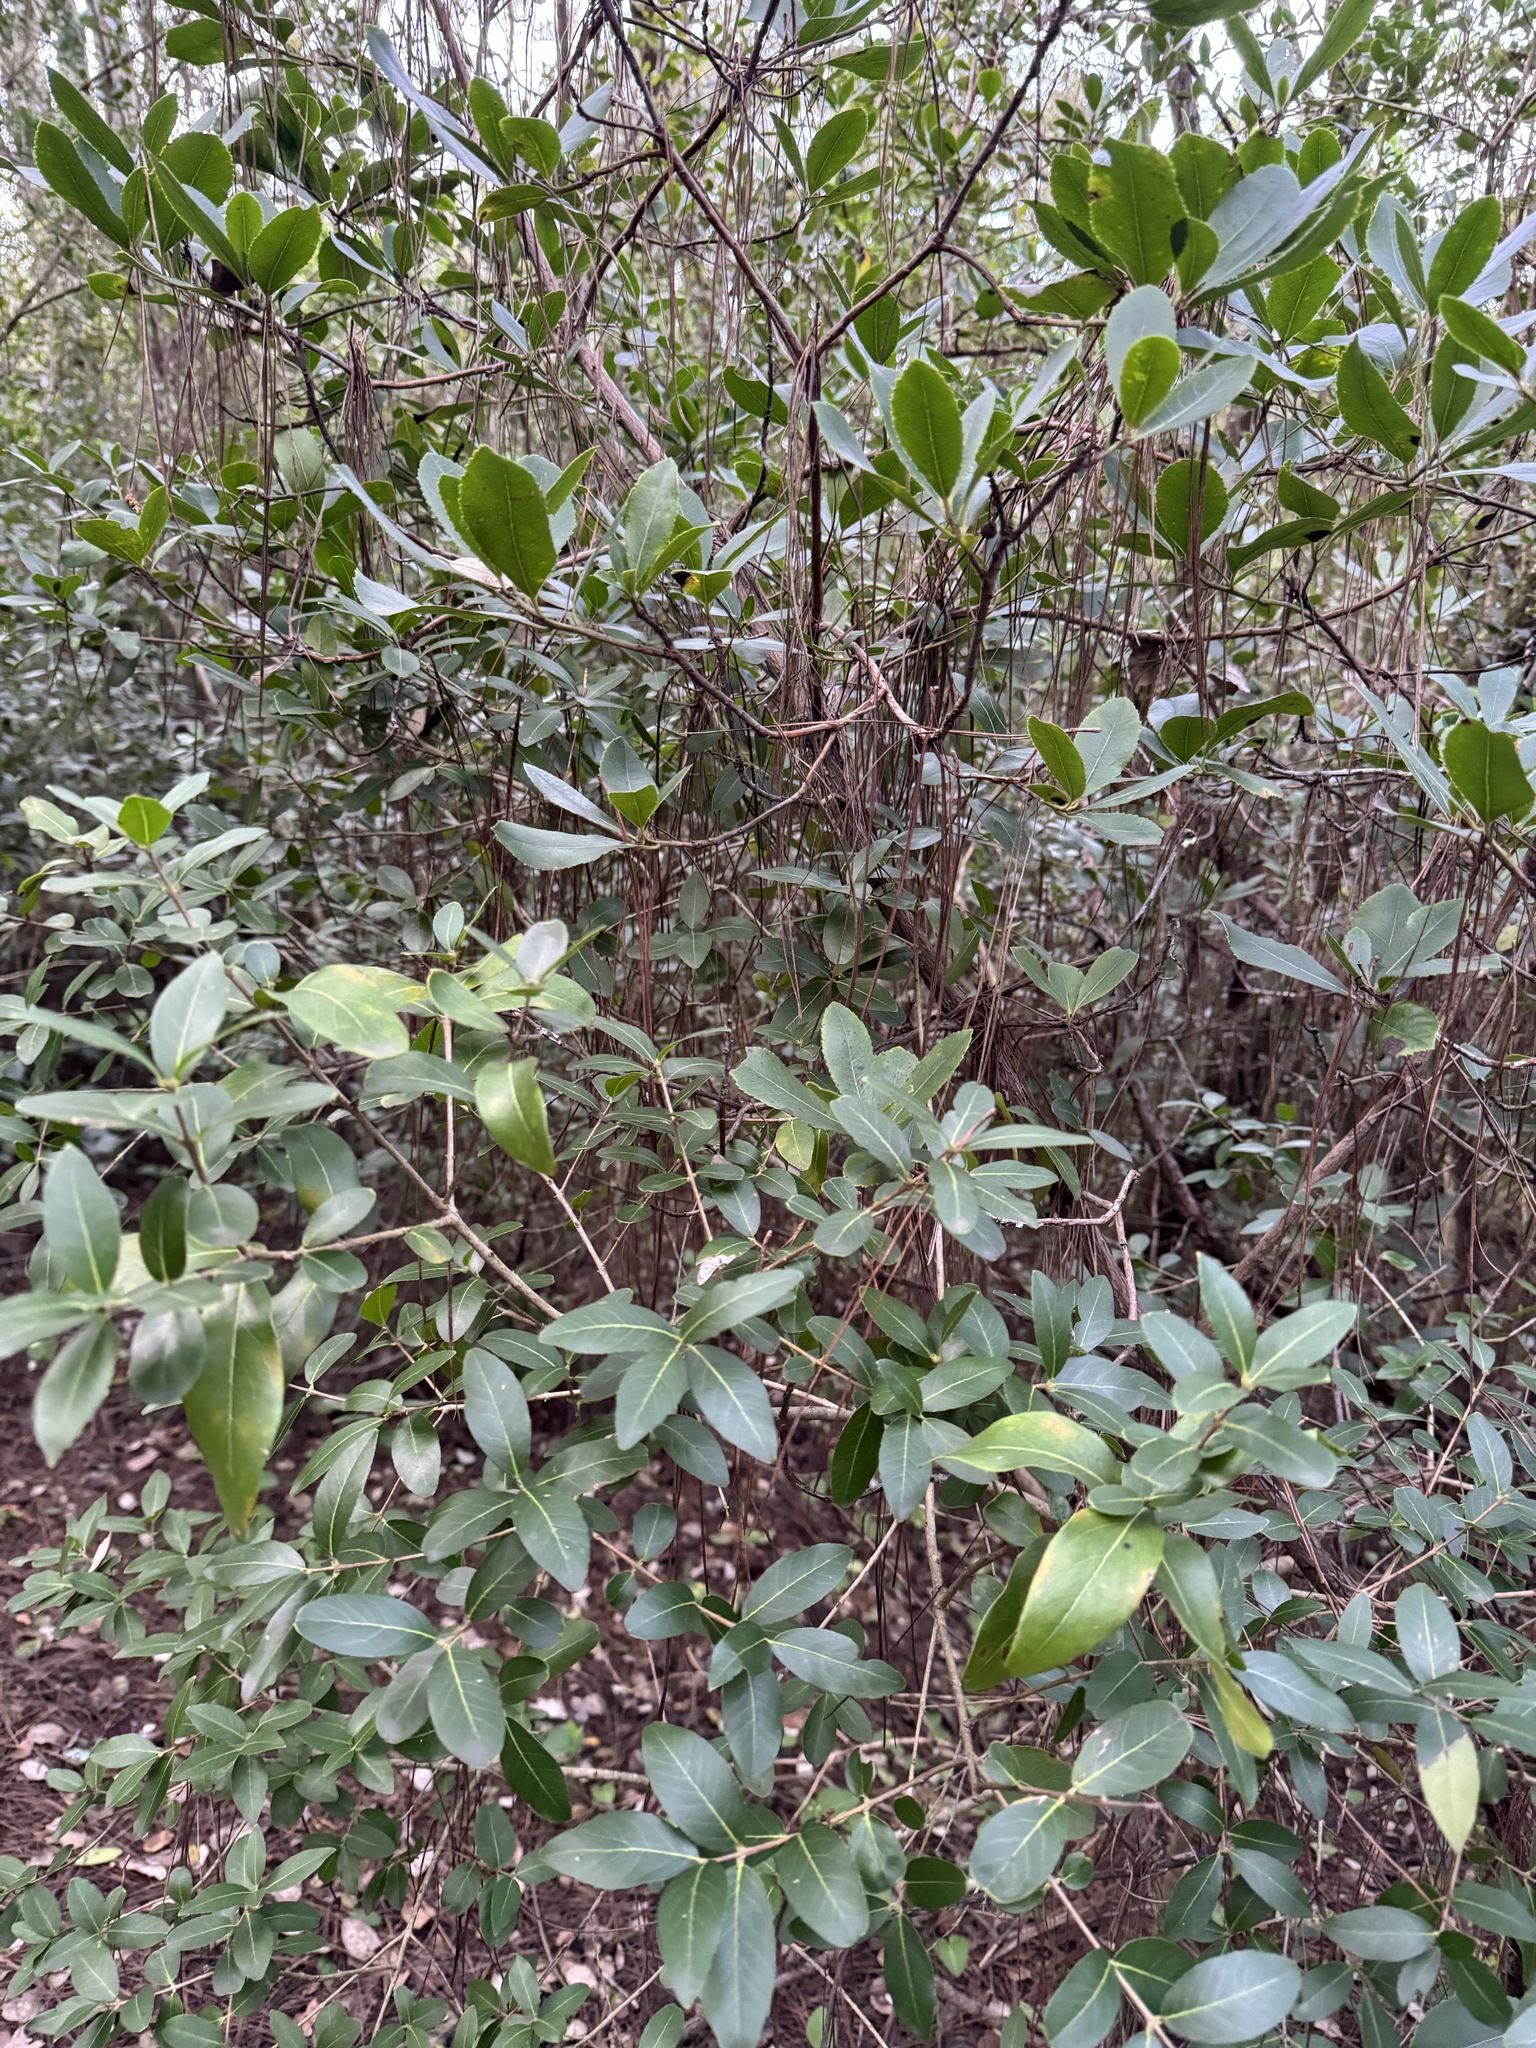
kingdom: Plantae
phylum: Tracheophyta
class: Magnoliopsida
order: Lamiales
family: Oleaceae
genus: Phillyrea
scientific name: Phillyrea latifolia
